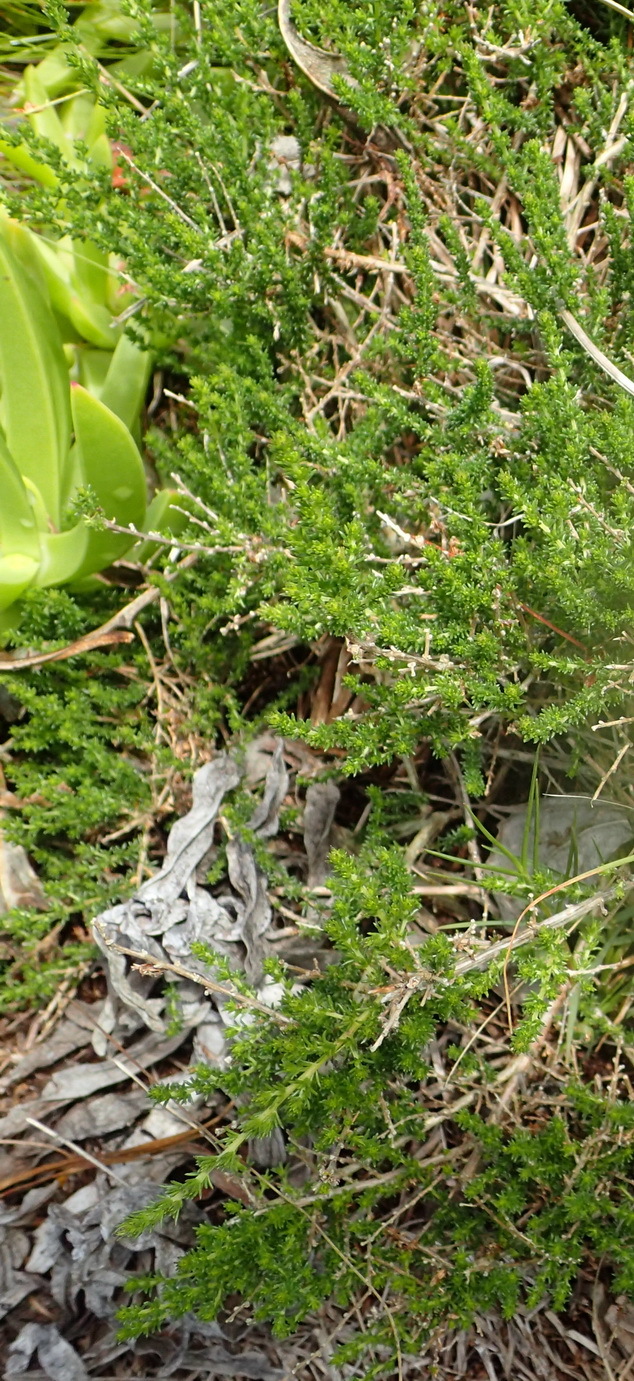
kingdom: Plantae
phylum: Tracheophyta
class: Magnoliopsida
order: Fabales
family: Fabaceae
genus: Aspalathus
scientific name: Aspalathus hispida
